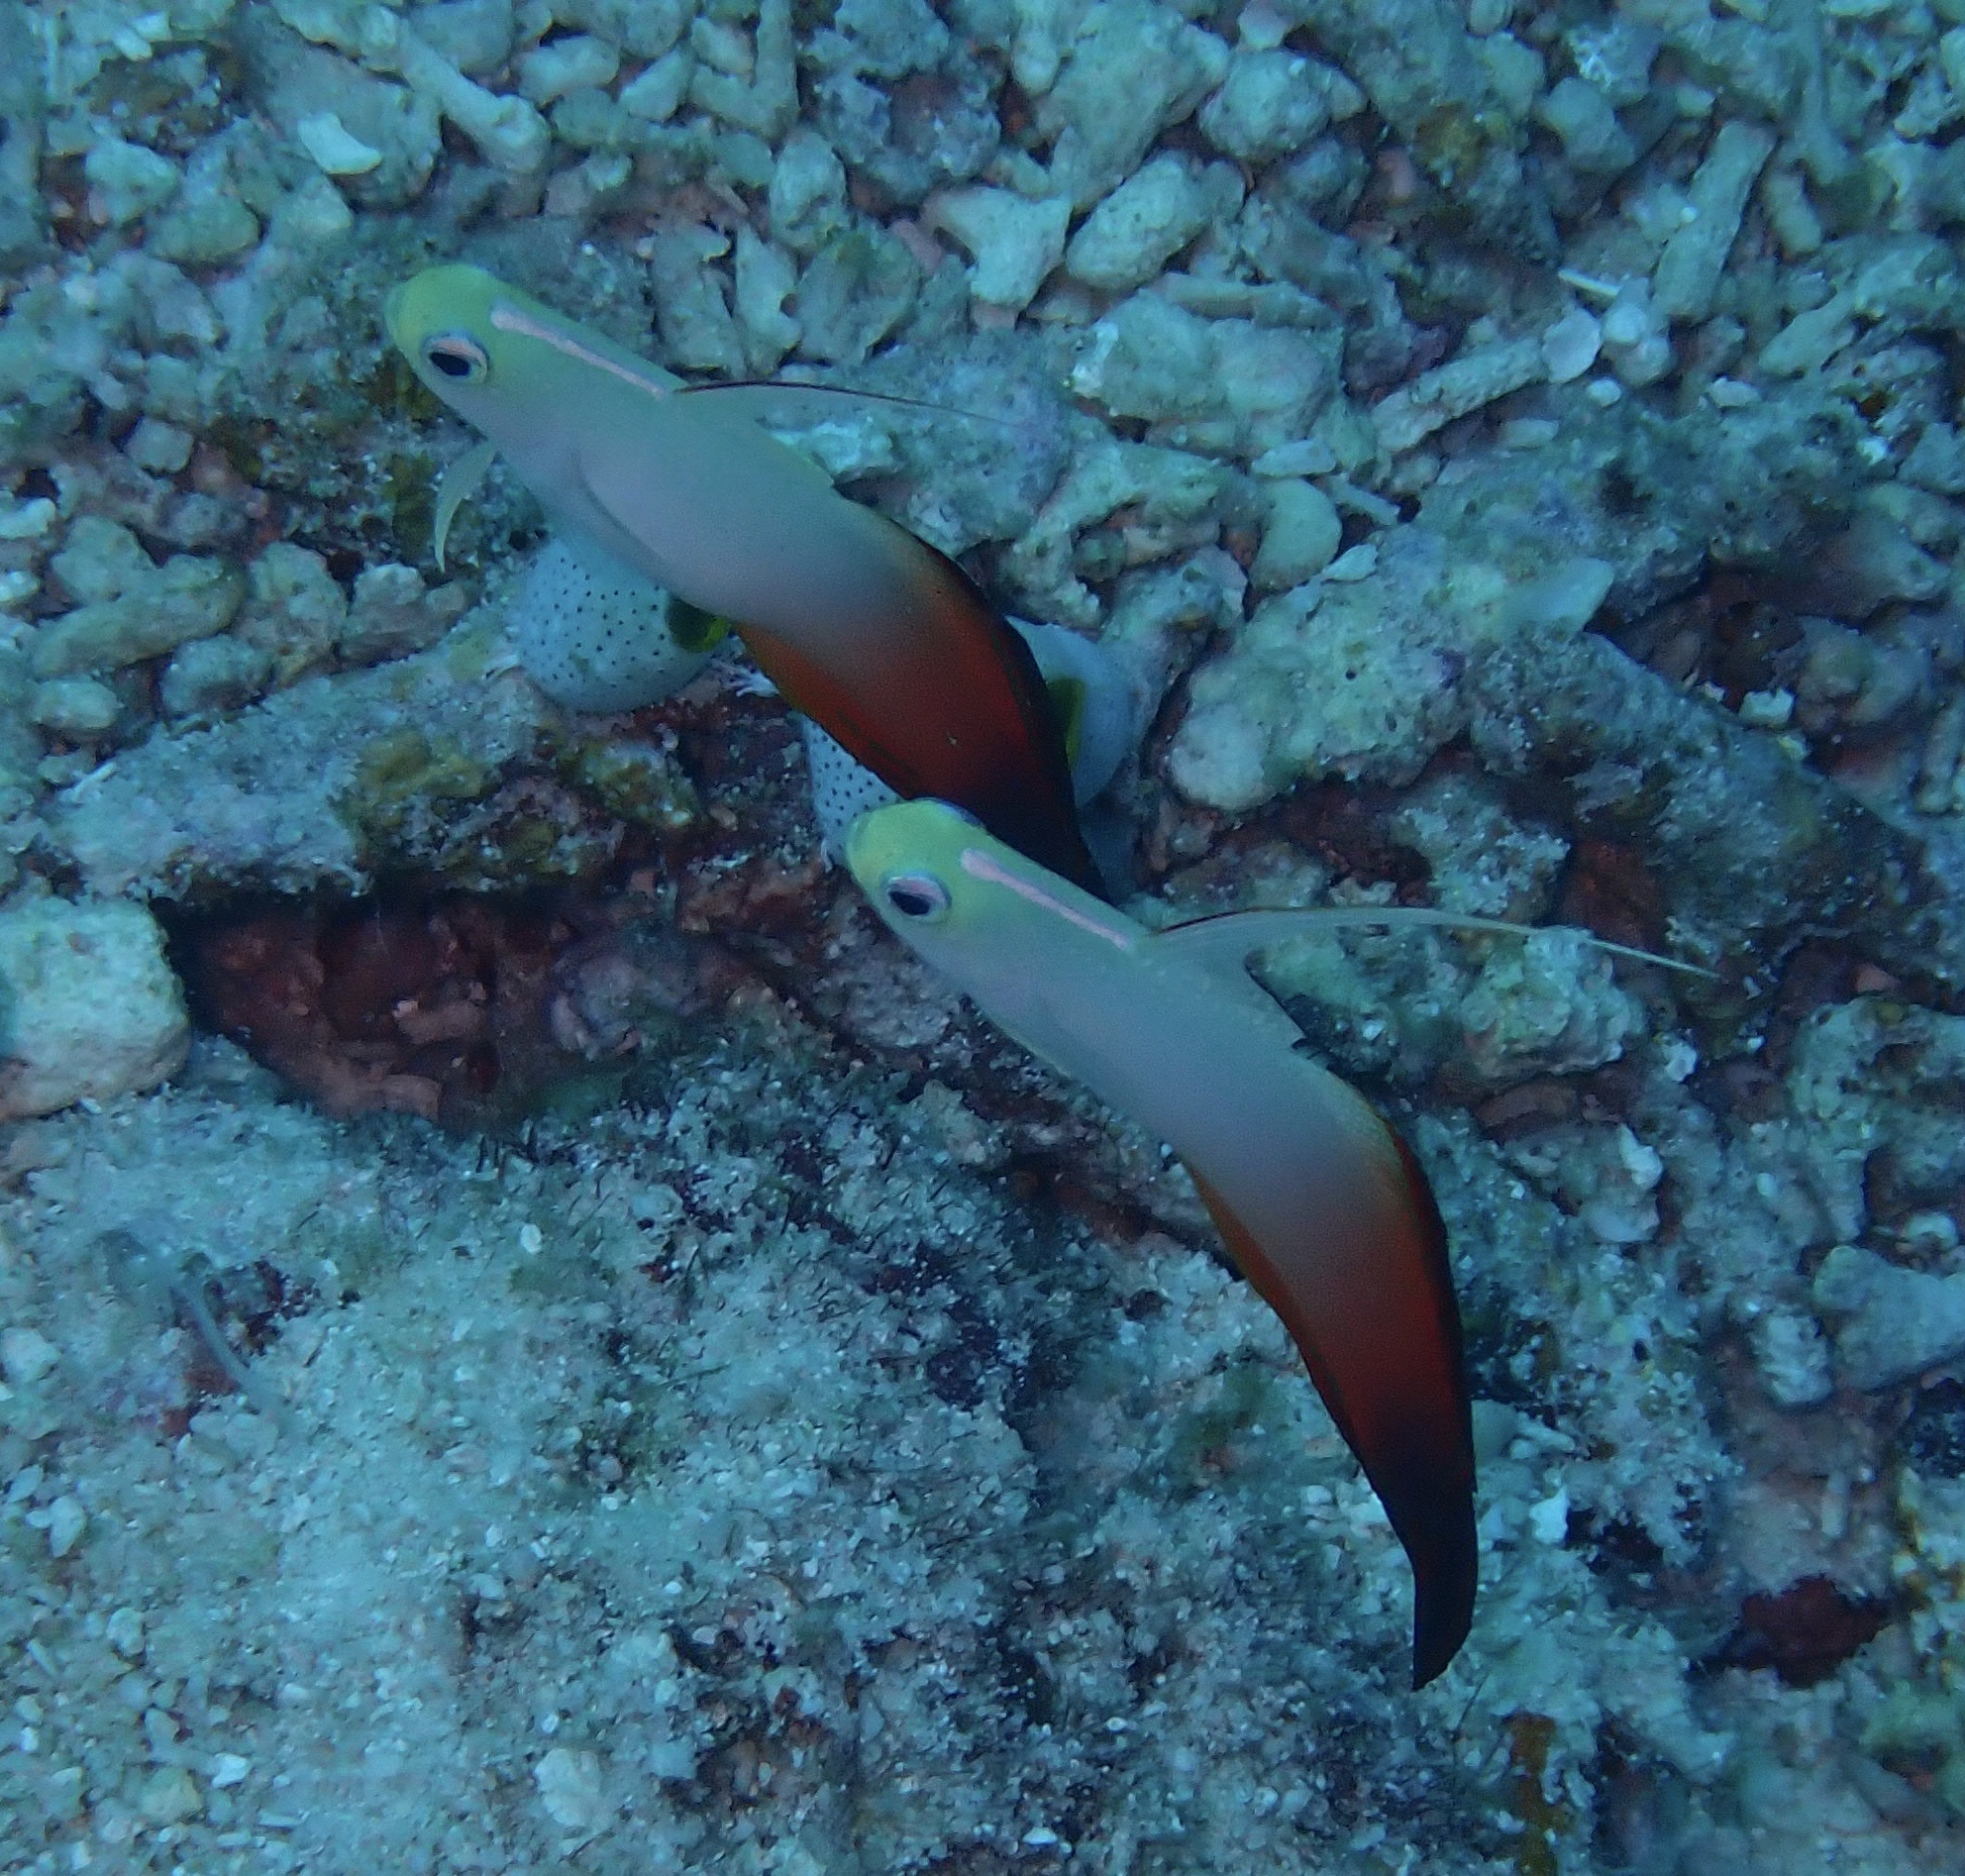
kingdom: Animalia
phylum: Chordata
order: Perciformes
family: Microdesmidae
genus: Nemateleotris
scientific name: Nemateleotris magnifica
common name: Fire goby
